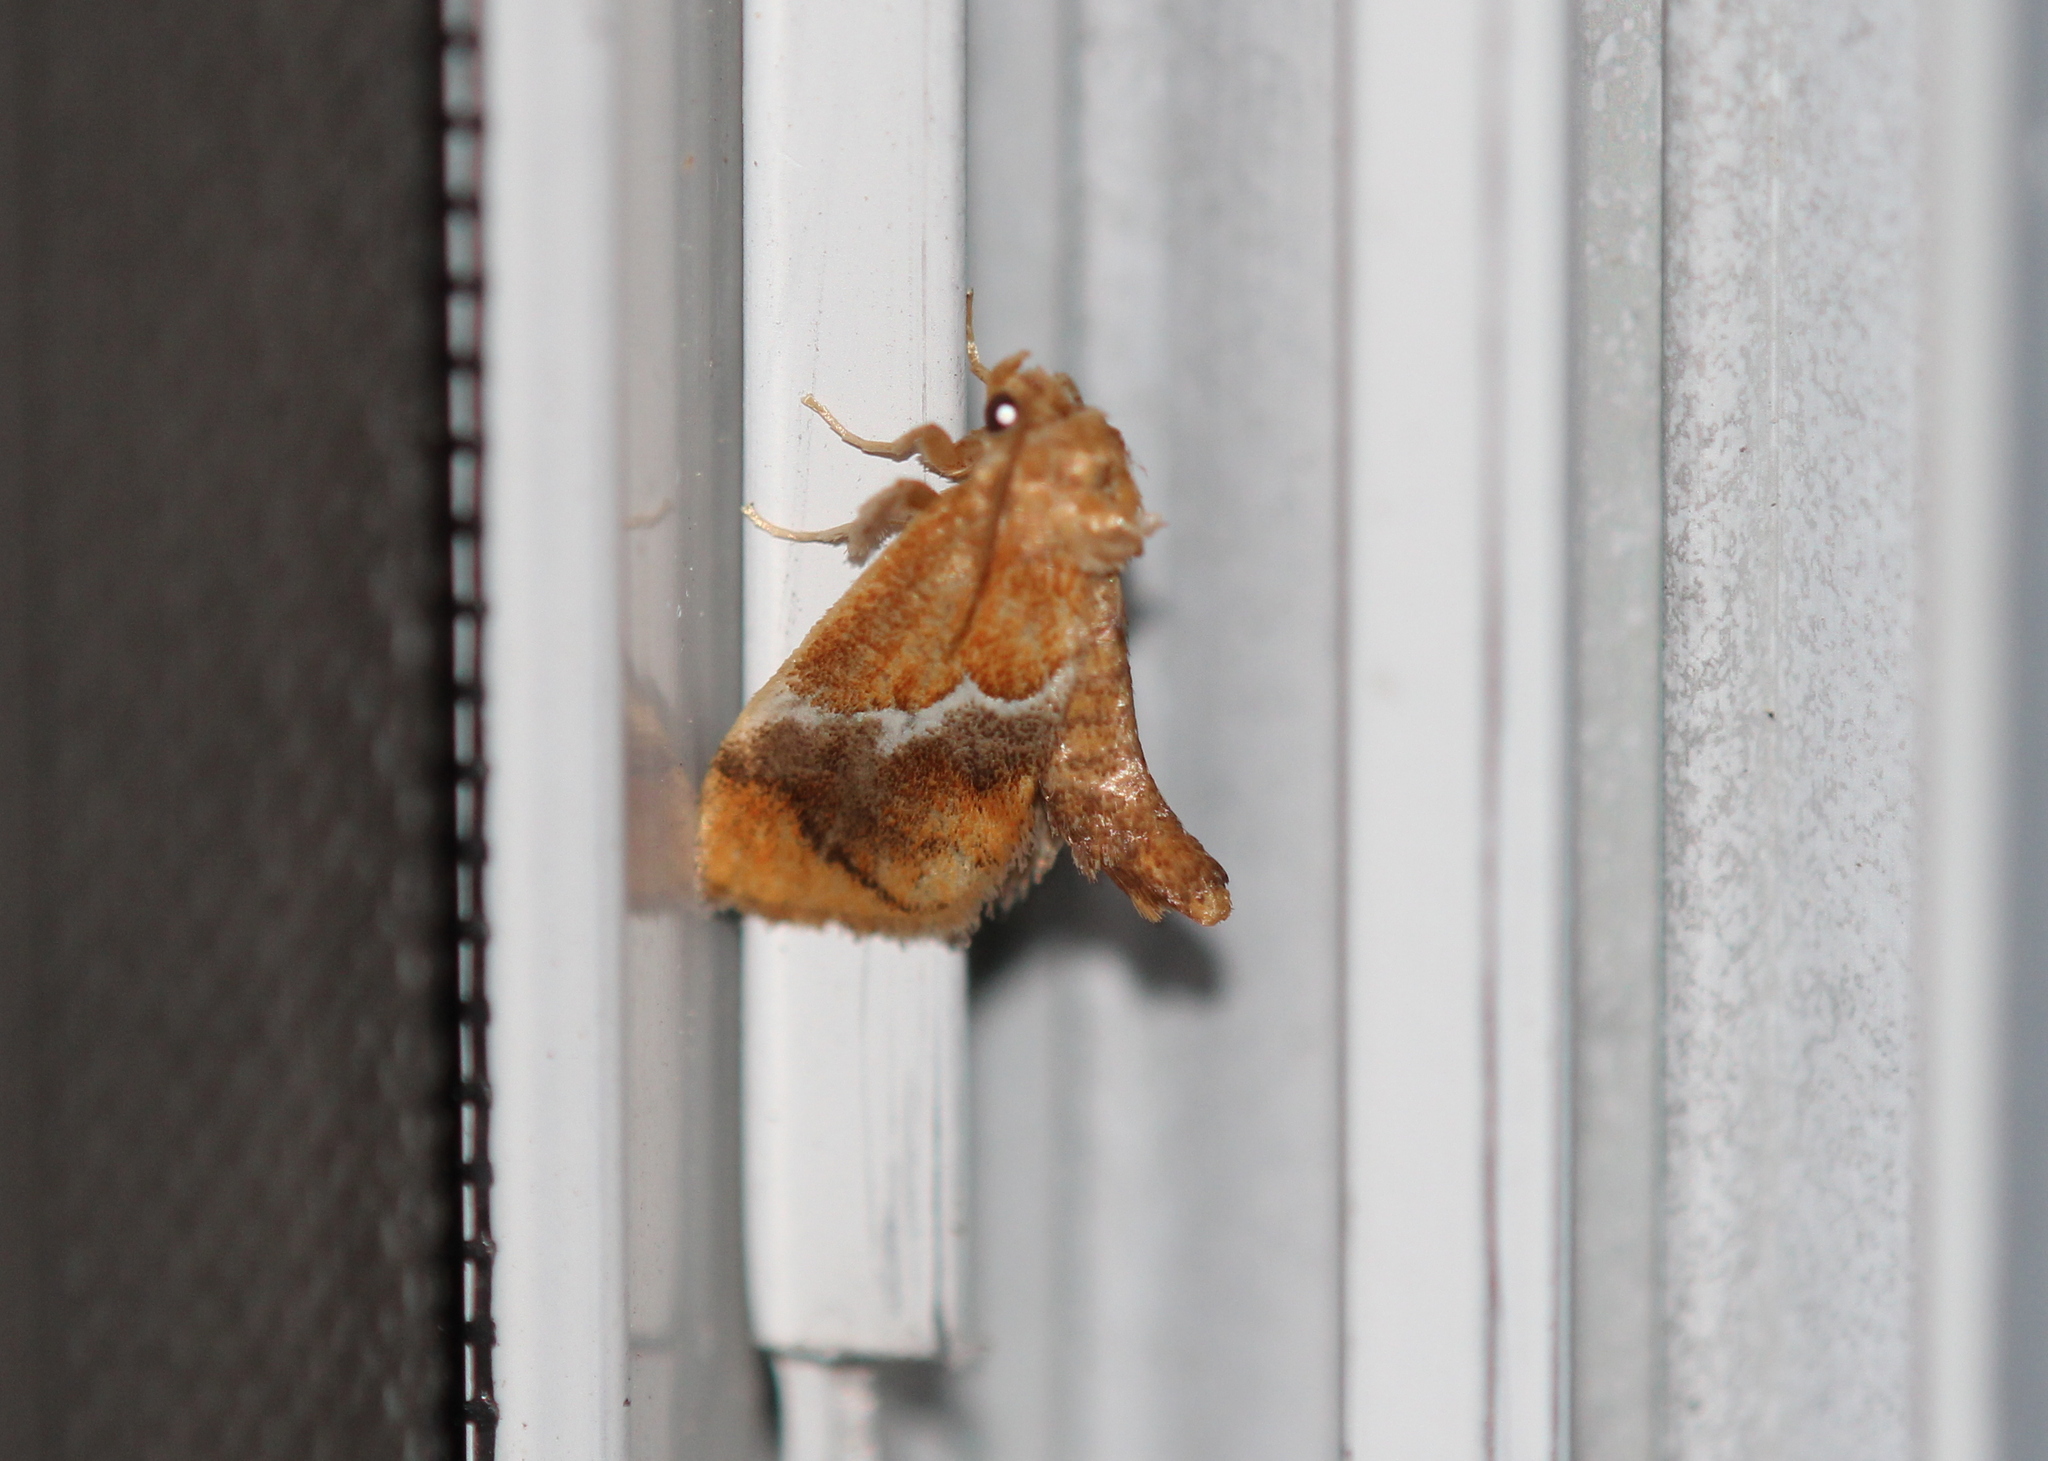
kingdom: Animalia
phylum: Arthropoda
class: Insecta
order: Lepidoptera
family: Limacodidae
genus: Lithacodes
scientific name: Lithacodes fasciola
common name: Yellow-shouldered slug moth
